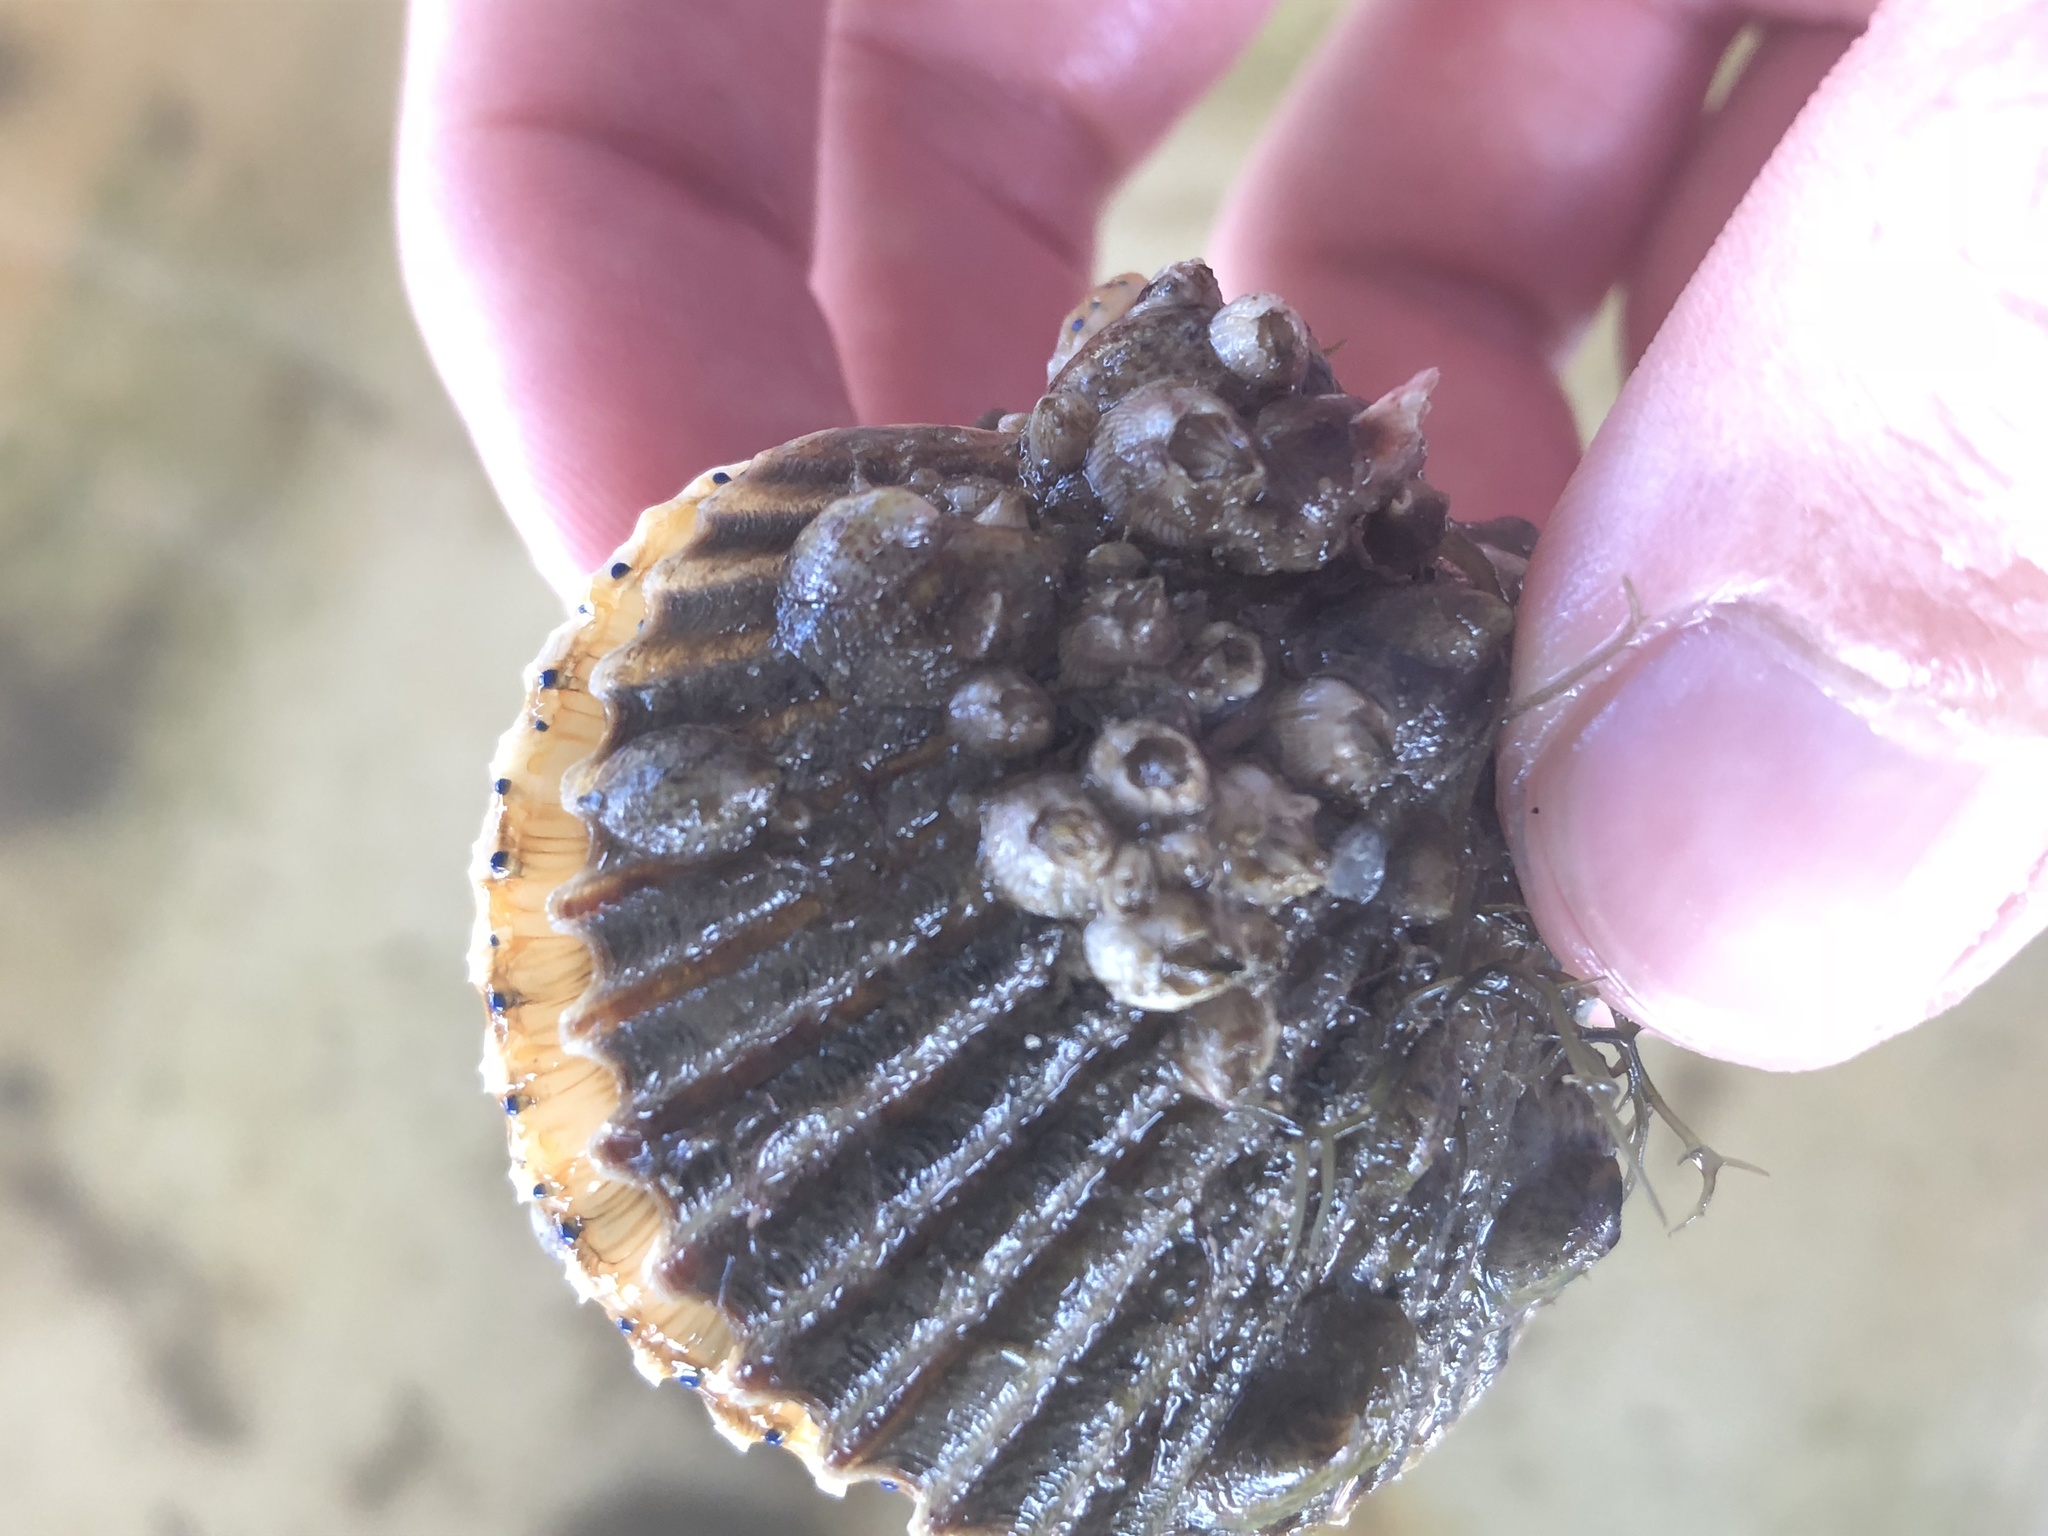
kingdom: Animalia
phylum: Arthropoda
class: Maxillopoda
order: Sessilia
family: Balanidae
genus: Amphibalanus
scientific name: Amphibalanus venustus
